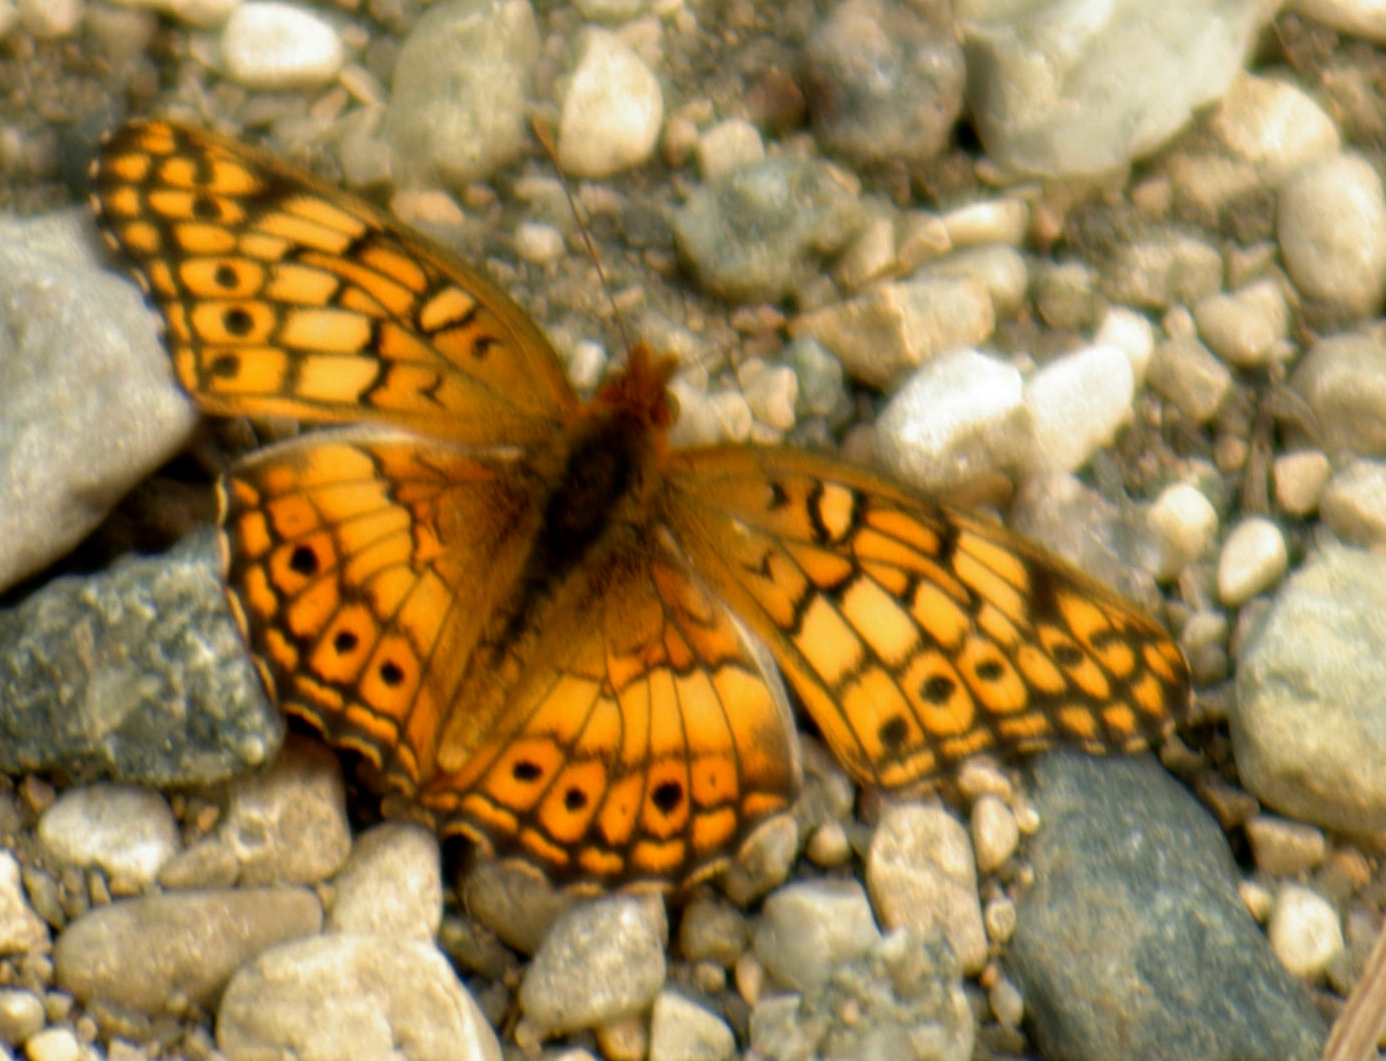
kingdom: Animalia
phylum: Arthropoda
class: Insecta
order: Lepidoptera
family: Nymphalidae
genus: Euptoieta
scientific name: Euptoieta claudia
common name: Variegated fritillary
